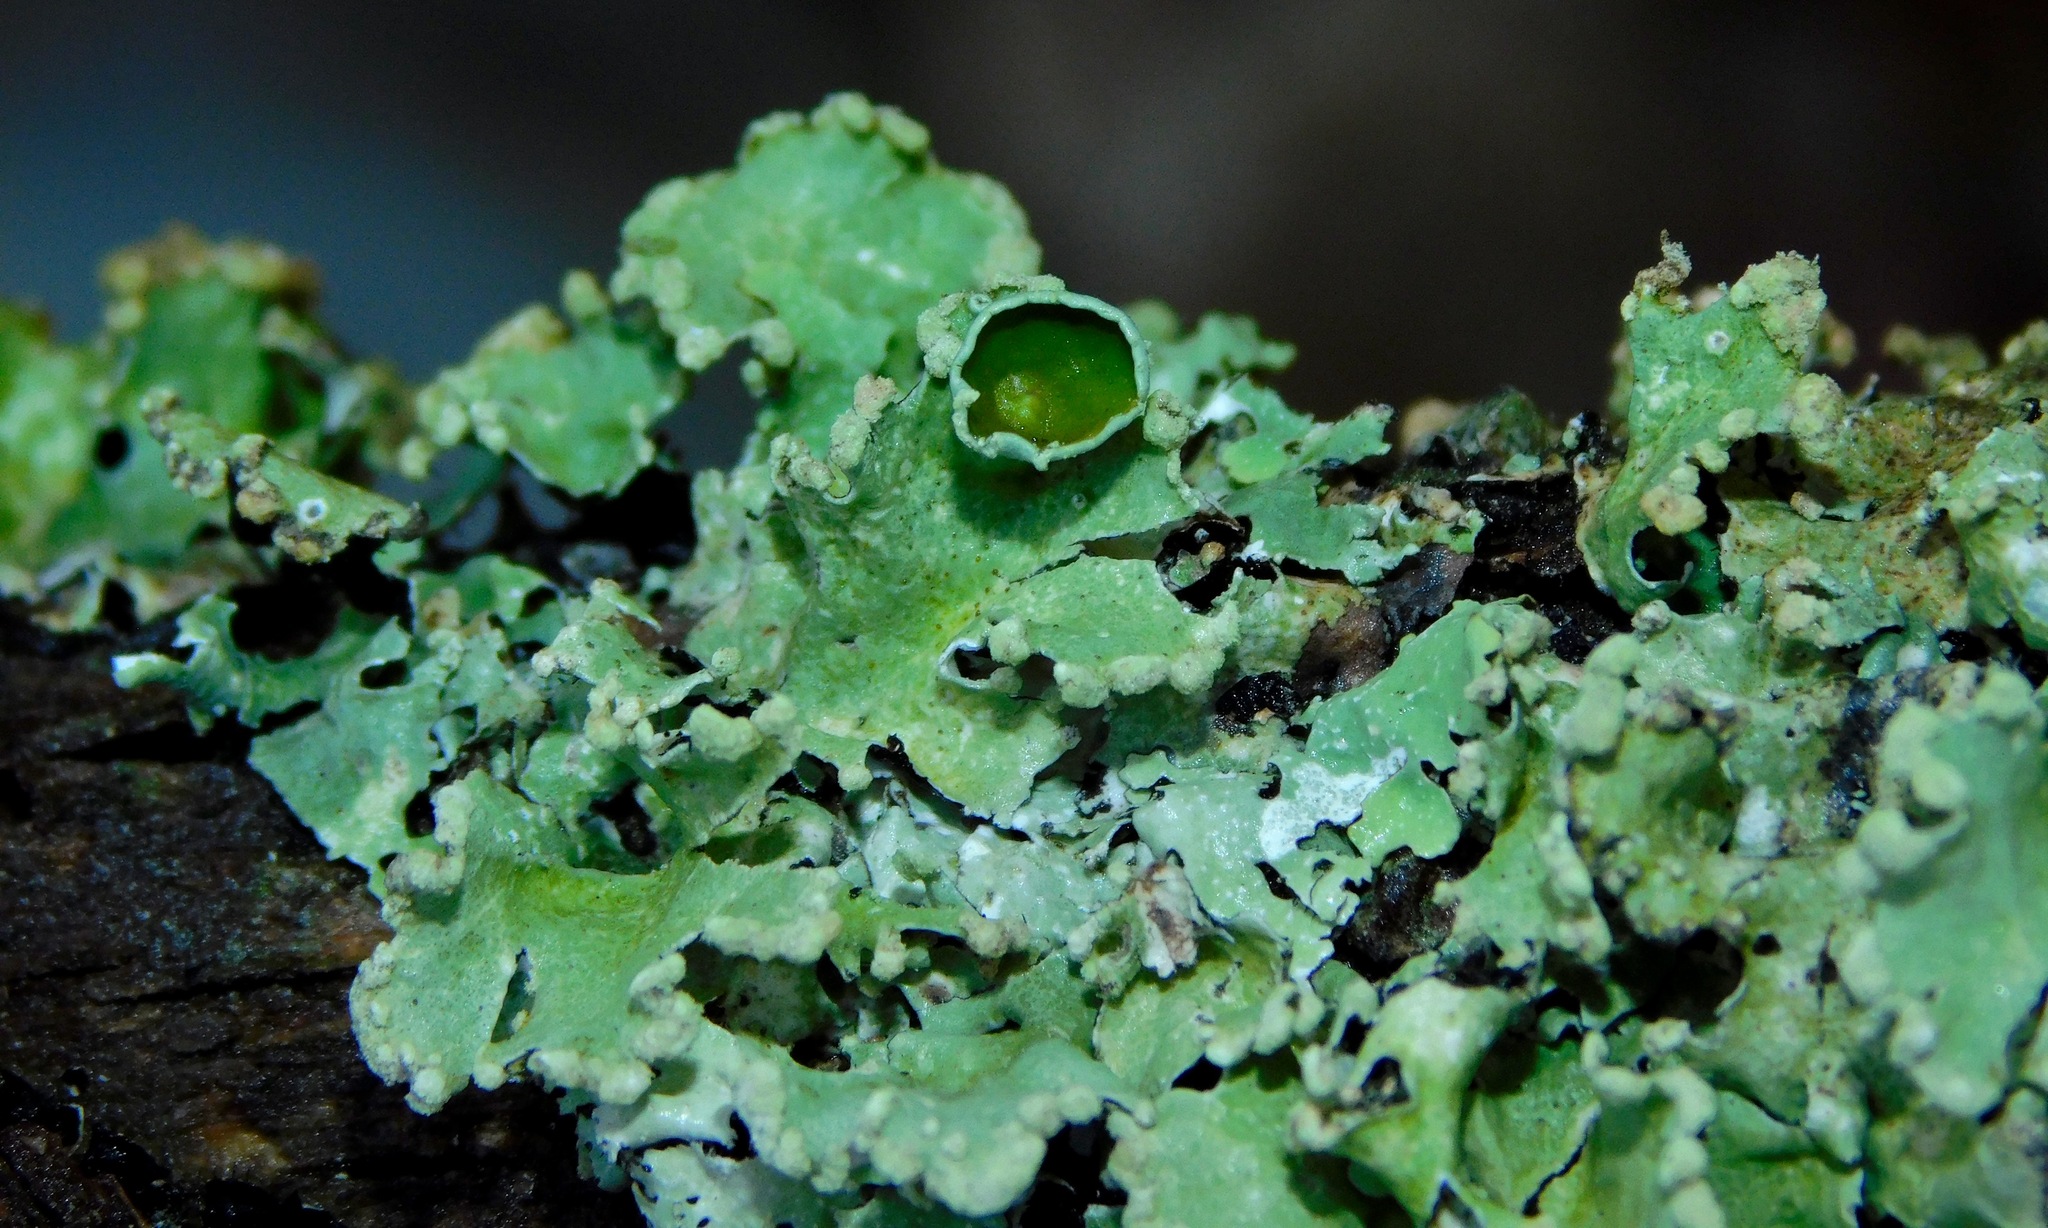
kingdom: Fungi
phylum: Ascomycota
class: Lecanoromycetes
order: Lecanorales
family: Parmeliaceae
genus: Parmotrema
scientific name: Parmotrema reticulatum
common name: Black sheet lichen
